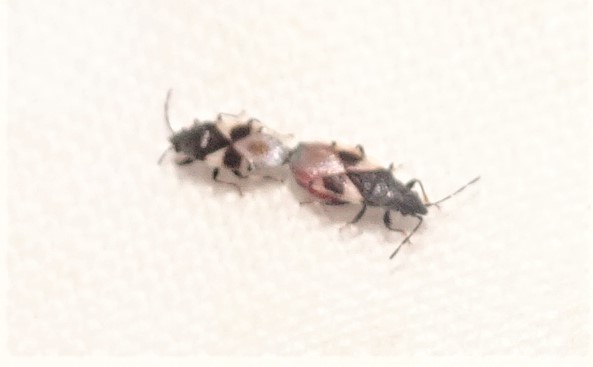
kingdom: Animalia
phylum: Arthropoda
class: Insecta
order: Hemiptera
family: Oxycarenidae
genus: Oxycarenus
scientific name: Oxycarenus luctuosus
